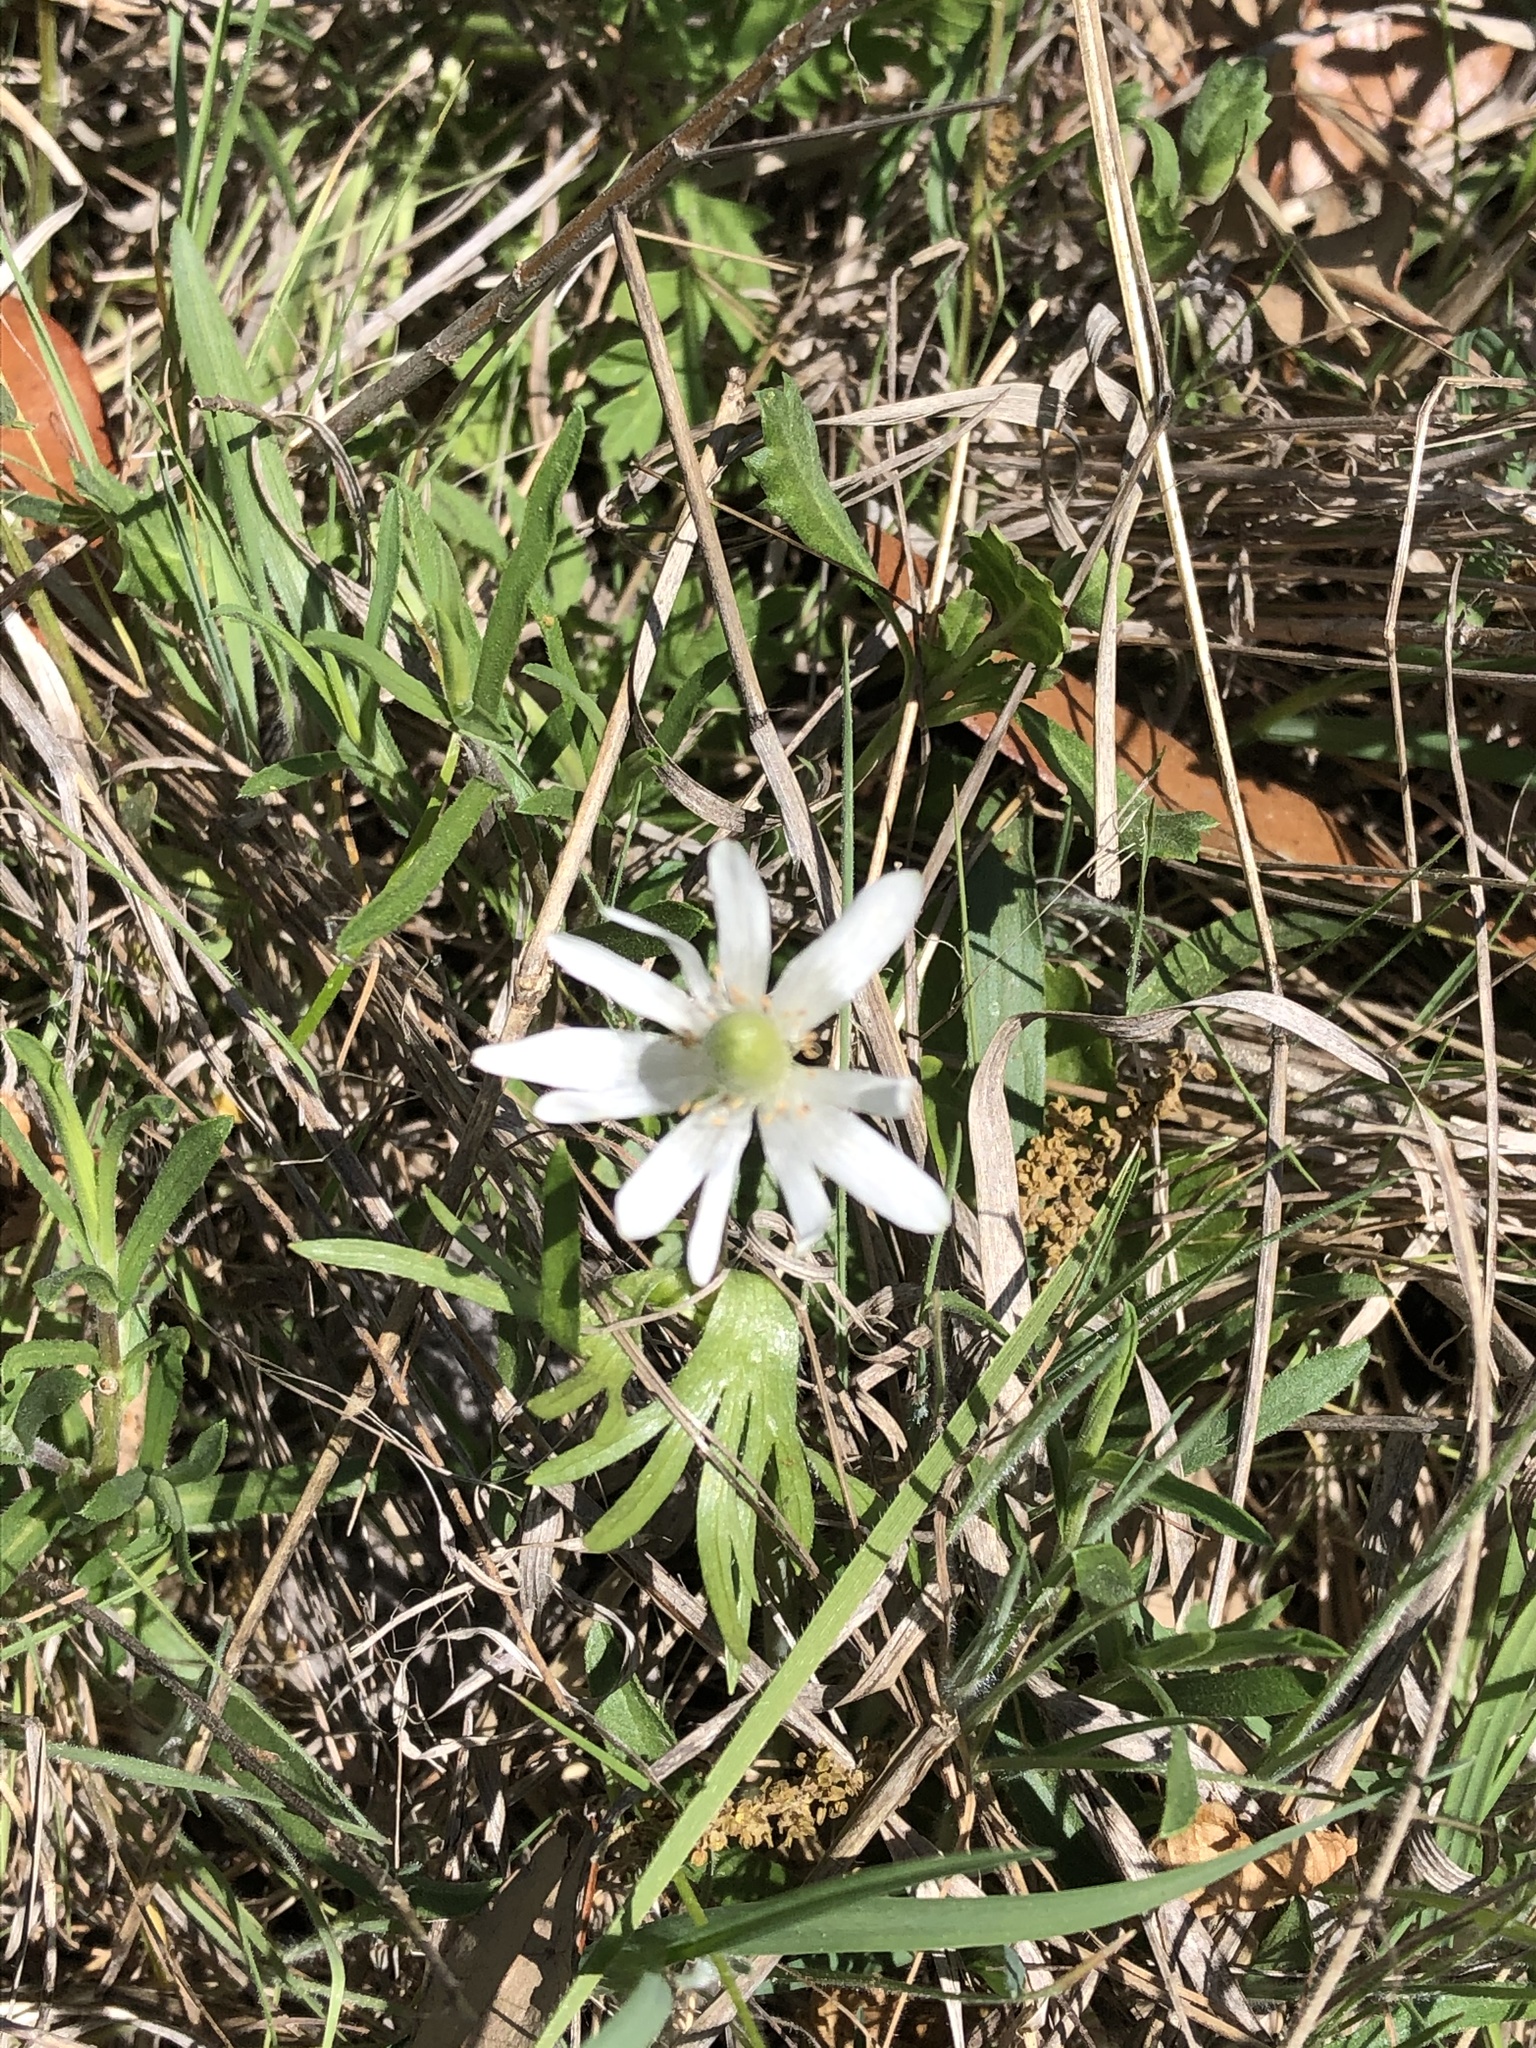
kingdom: Plantae
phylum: Tracheophyta
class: Magnoliopsida
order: Ranunculales
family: Ranunculaceae
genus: Anemone
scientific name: Anemone berlandieri
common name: Ten-petal anemone
